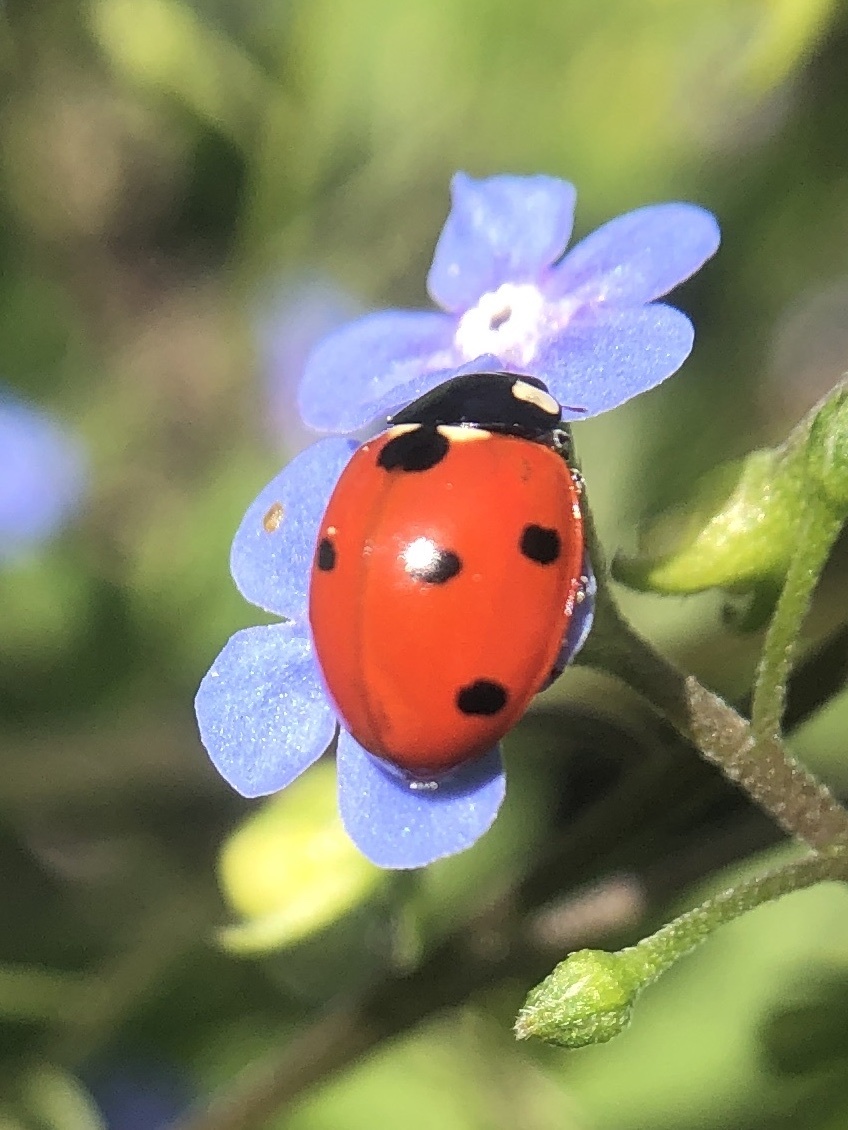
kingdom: Animalia
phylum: Arthropoda
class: Insecta
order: Coleoptera
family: Coccinellidae
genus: Coccinella
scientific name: Coccinella septempunctata
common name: Sevenspotted lady beetle
